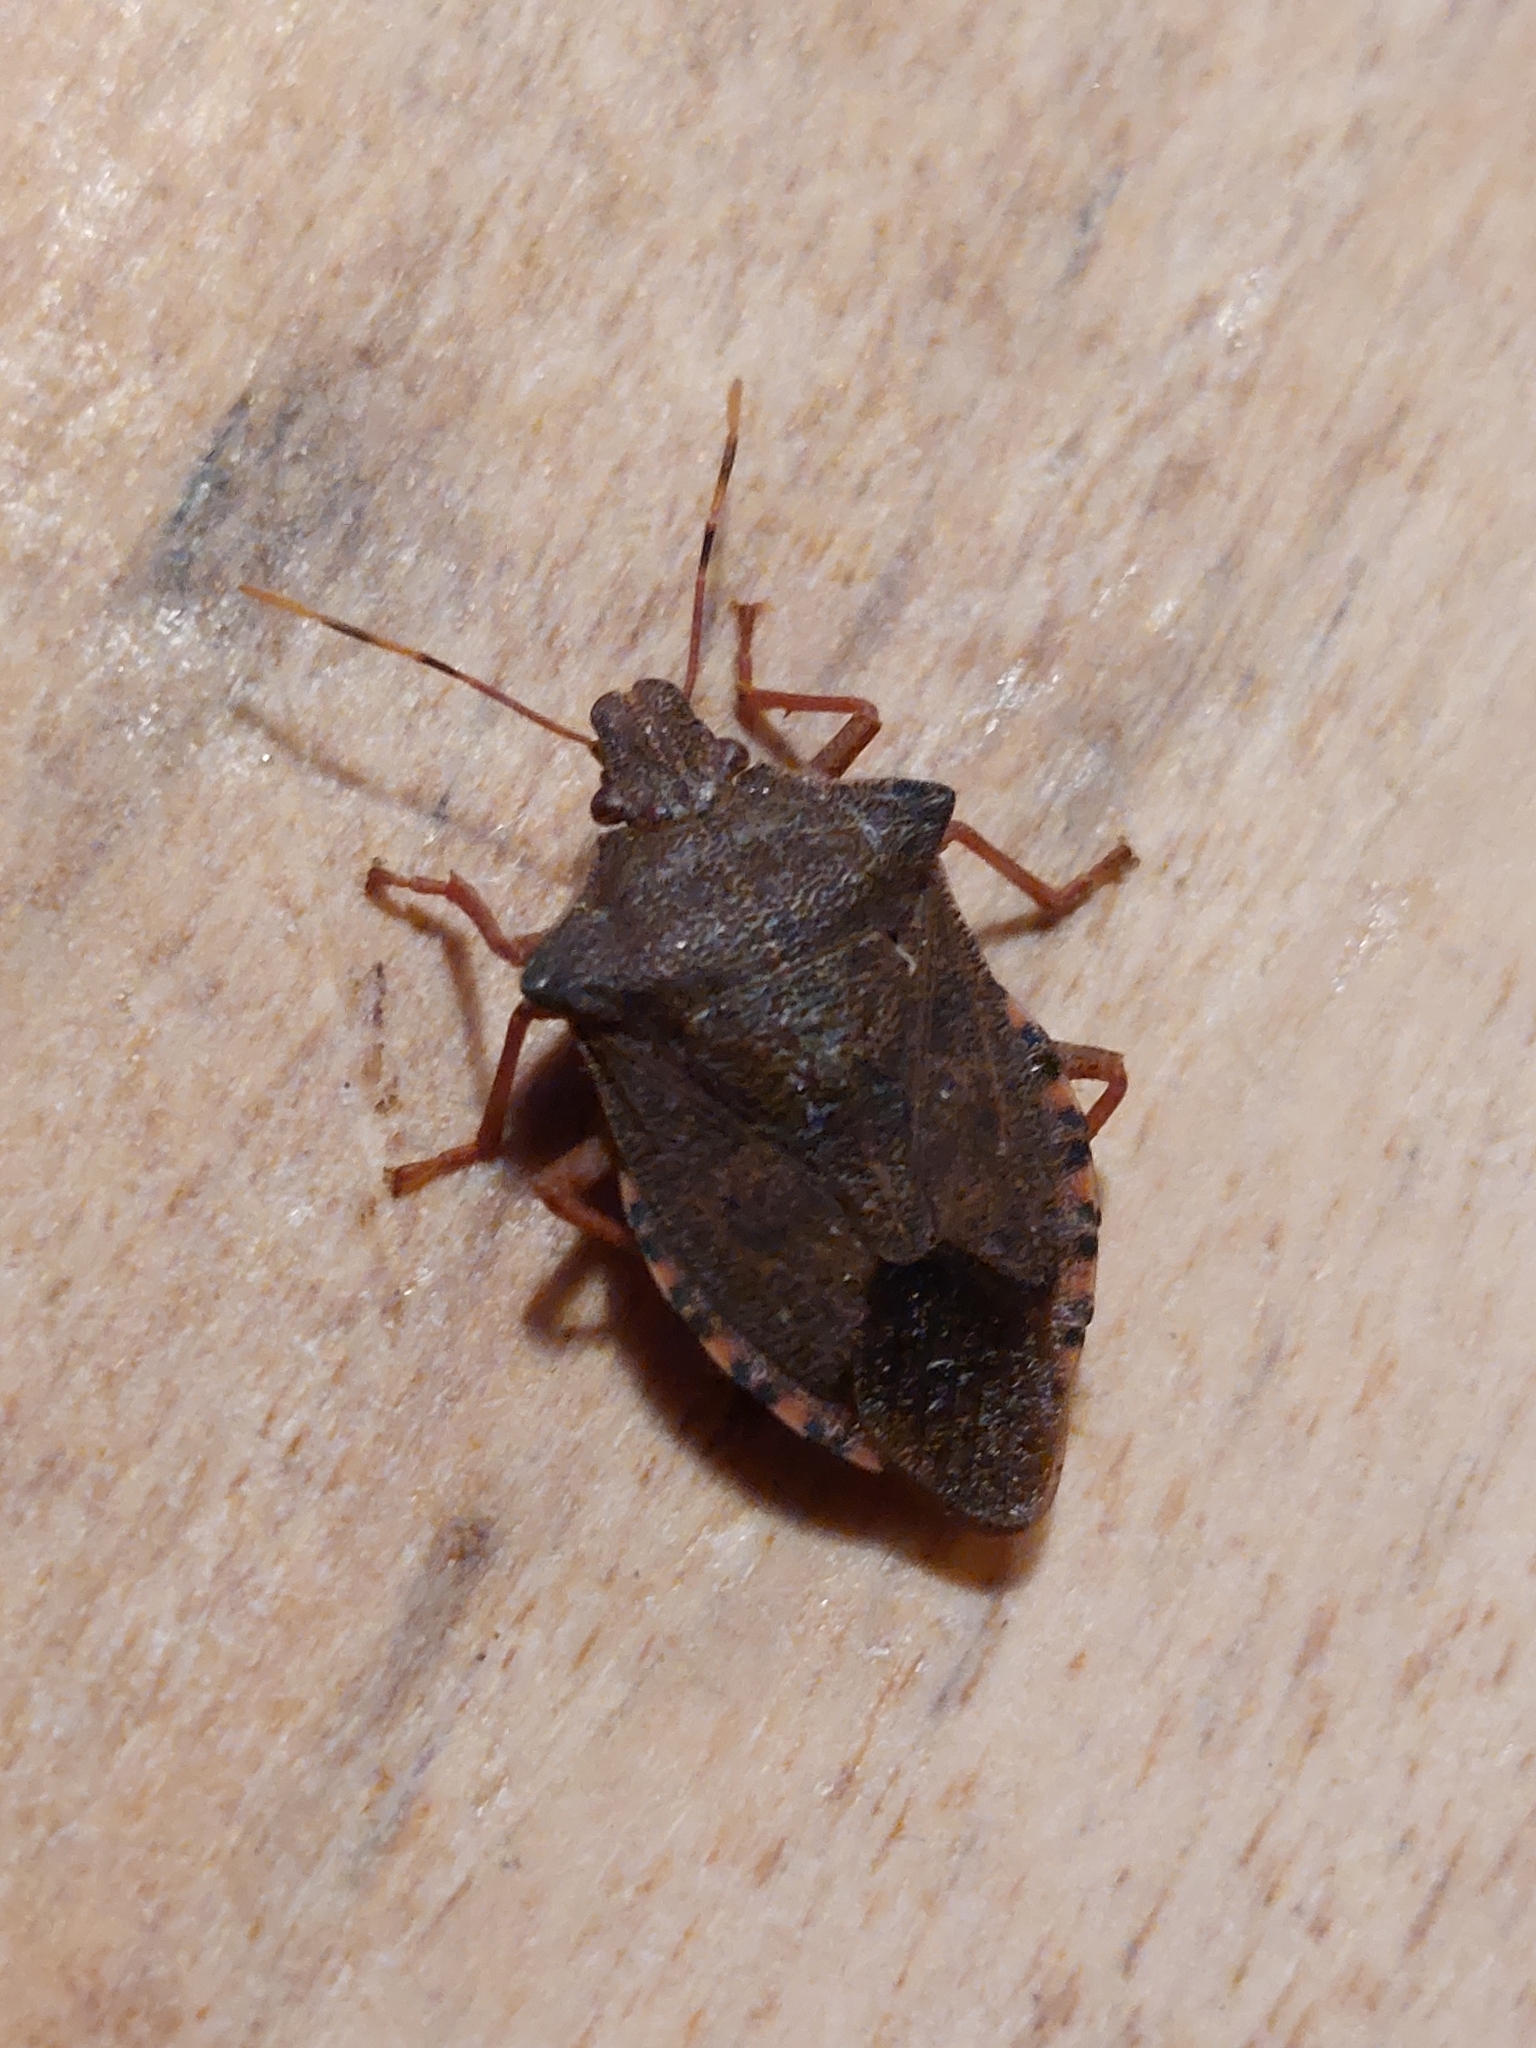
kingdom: Animalia
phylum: Arthropoda
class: Insecta
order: Hemiptera
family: Pentatomidae
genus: Arma
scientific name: Arma custos
